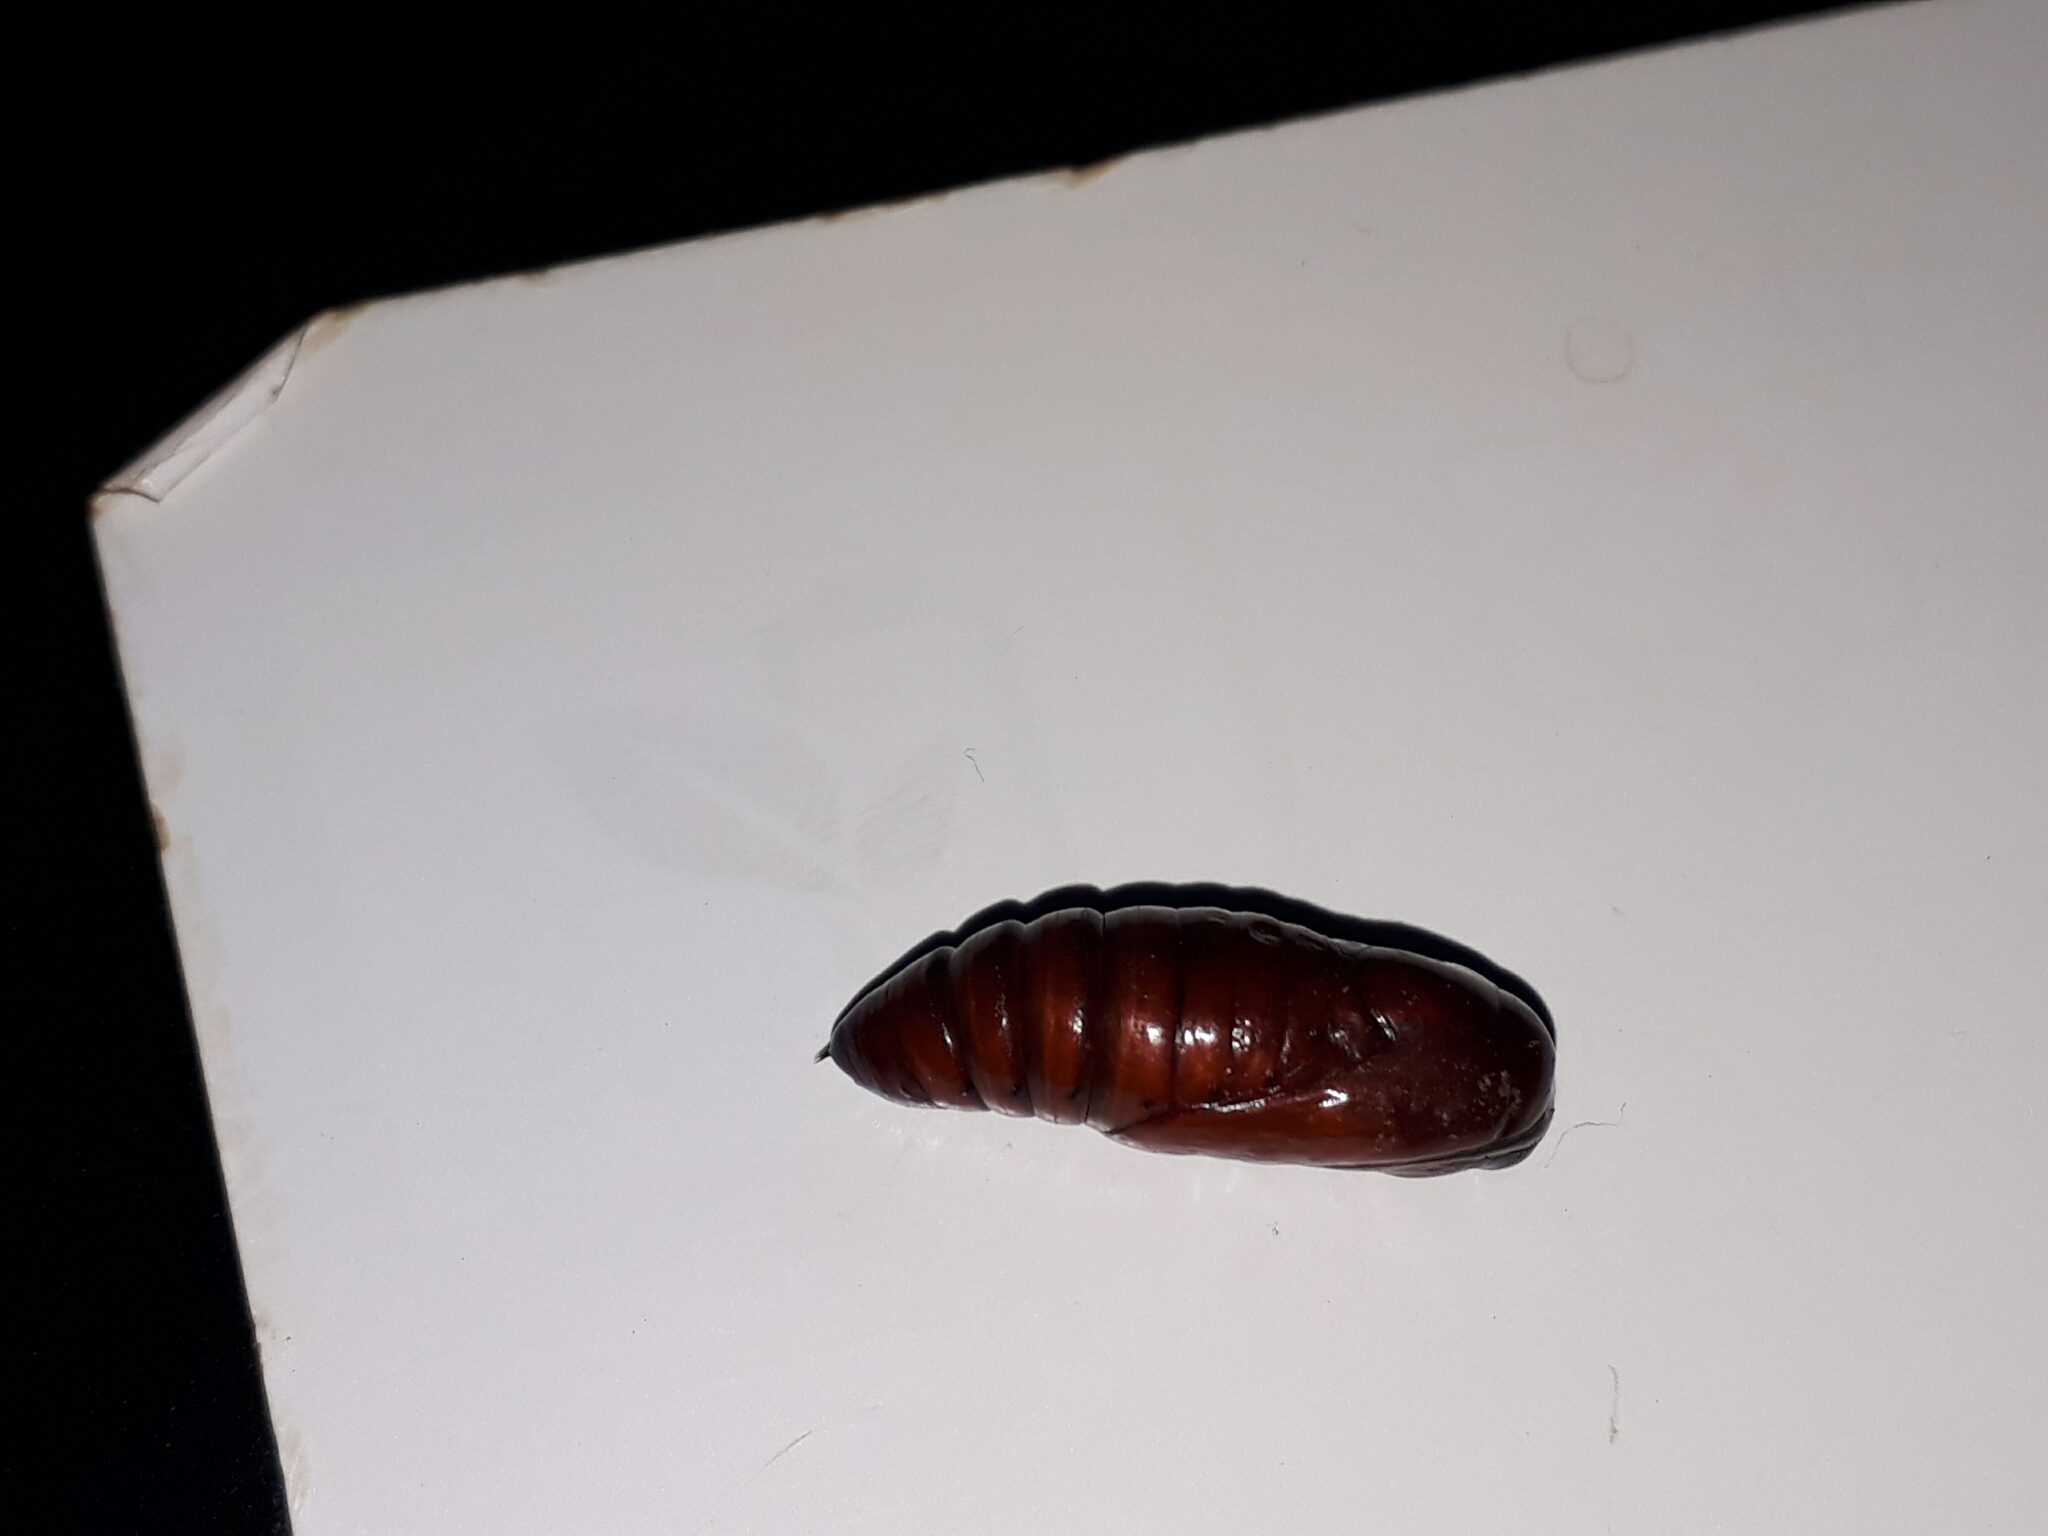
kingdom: Animalia
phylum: Arthropoda
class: Insecta
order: Lepidoptera
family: Noctuidae
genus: Anicla
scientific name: Anicla ignicans
